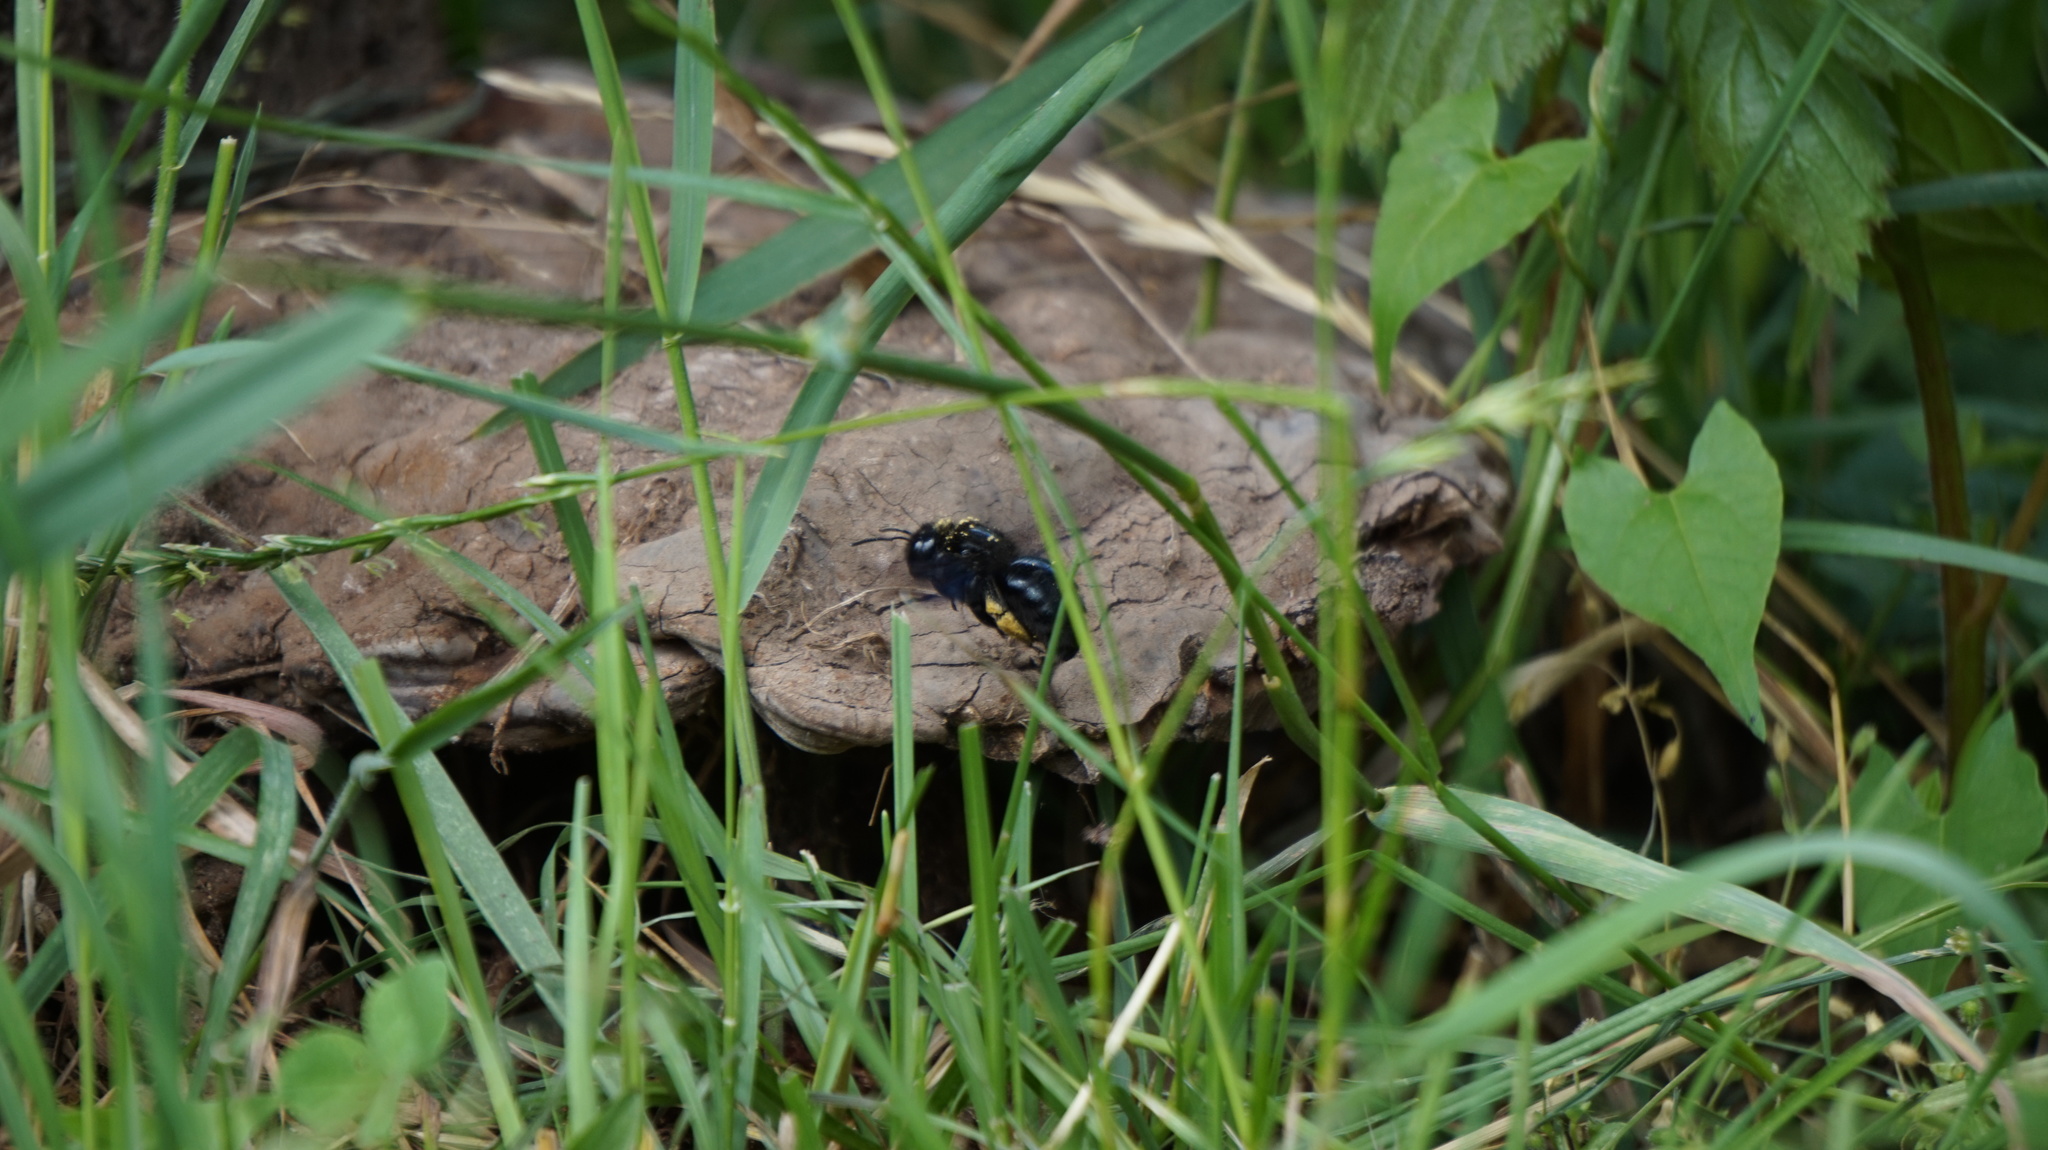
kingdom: Animalia
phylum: Arthropoda
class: Insecta
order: Hymenoptera
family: Apidae
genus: Xylocopa
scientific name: Xylocopa violacea
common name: Violet carpenter bee
